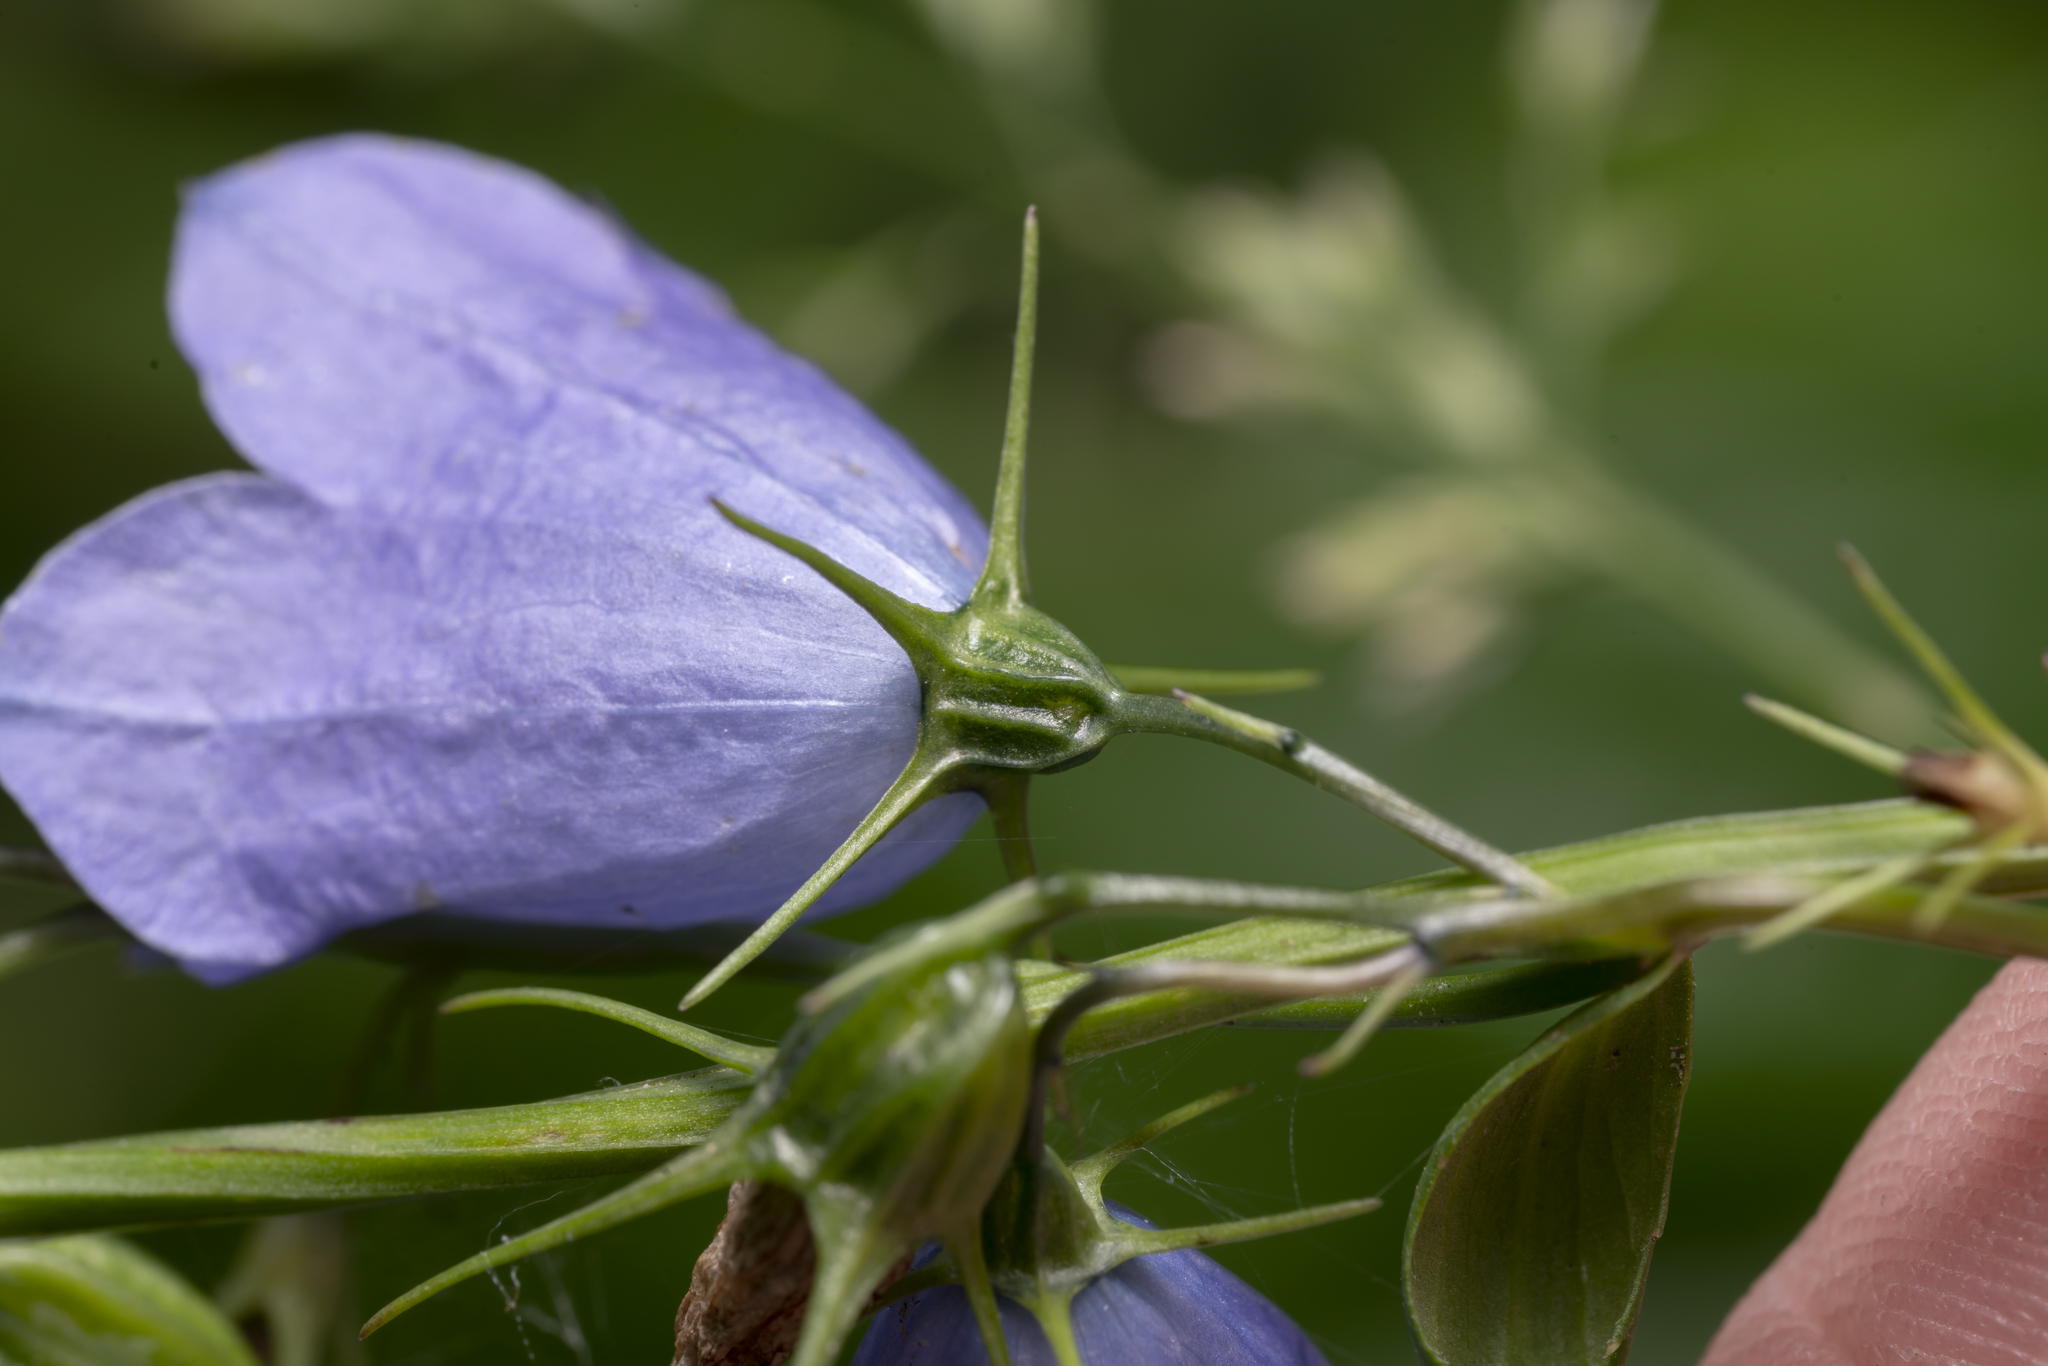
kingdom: Plantae
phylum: Tracheophyta
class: Magnoliopsida
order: Asterales
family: Campanulaceae
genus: Campanula
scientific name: Campanula rhomboidalis
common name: Broad-leaved harebell
